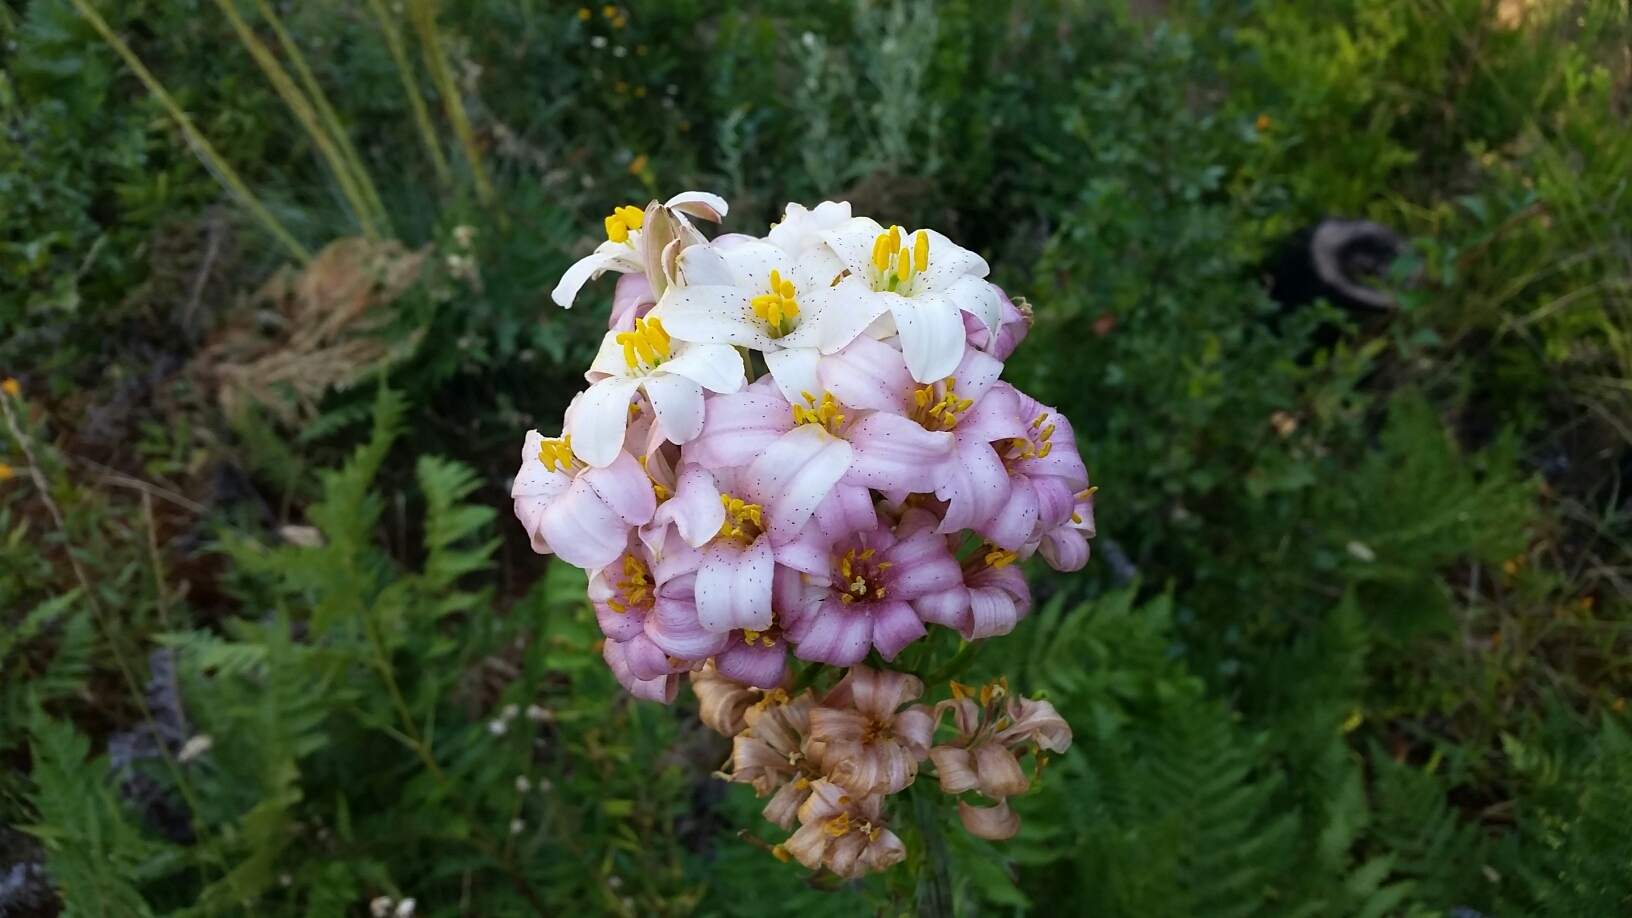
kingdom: Plantae
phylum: Tracheophyta
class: Liliopsida
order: Liliales
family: Liliaceae
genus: Lilium
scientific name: Lilium rubescens
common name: Chamise lily
